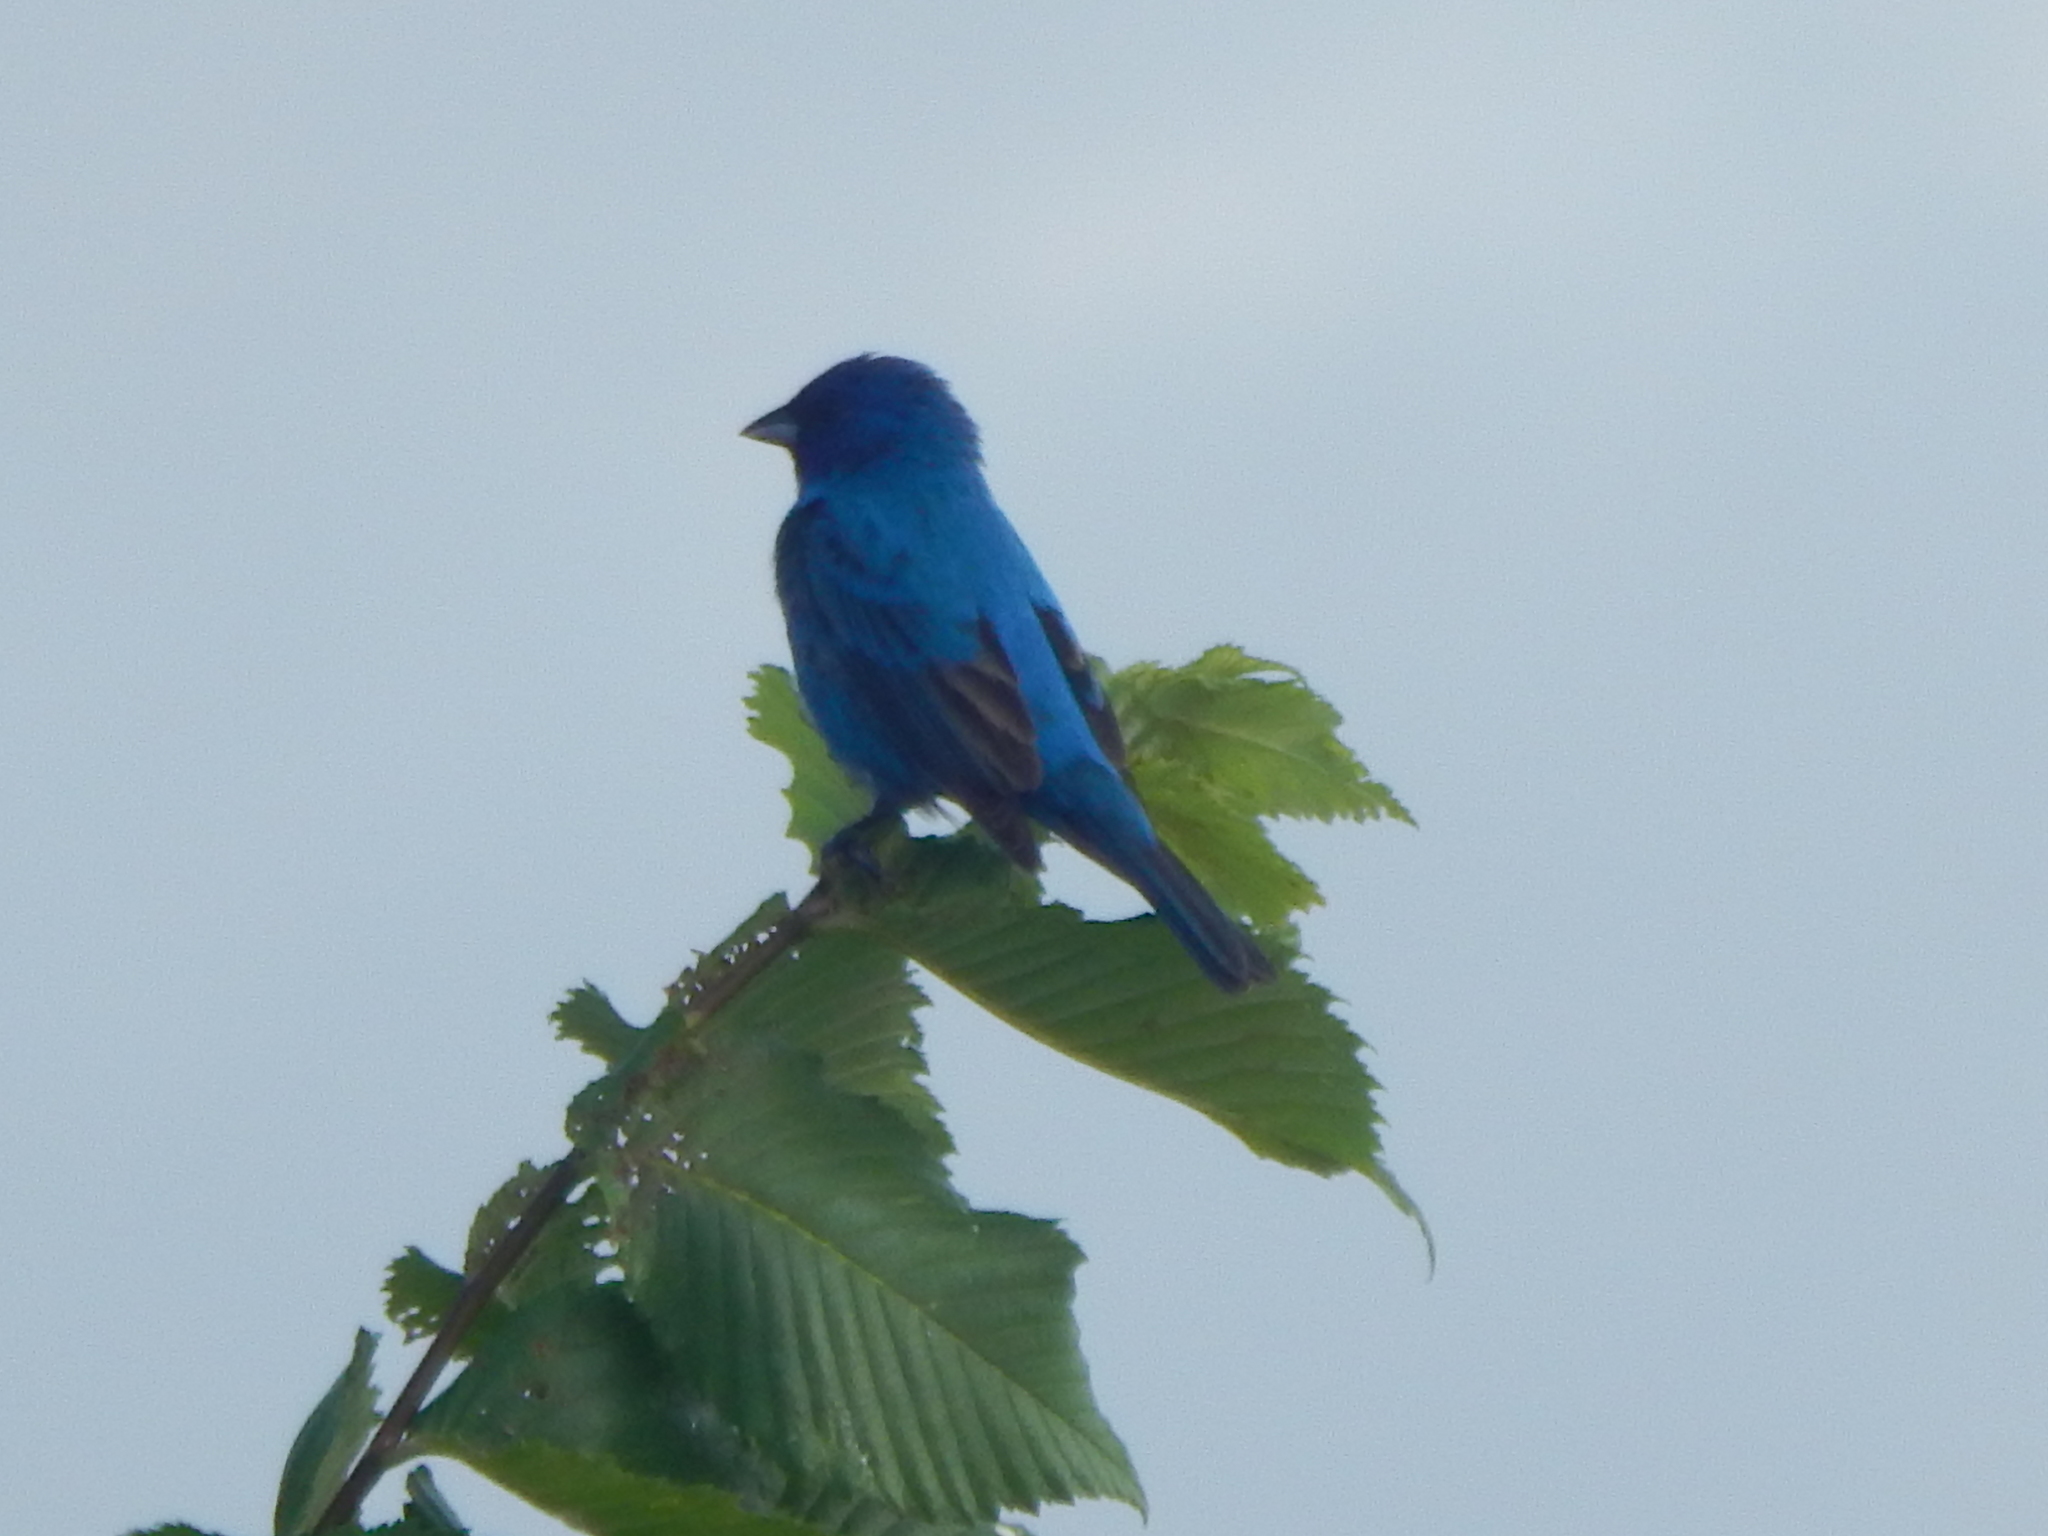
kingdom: Animalia
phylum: Chordata
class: Aves
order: Passeriformes
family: Cardinalidae
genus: Passerina
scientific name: Passerina cyanea
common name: Indigo bunting
